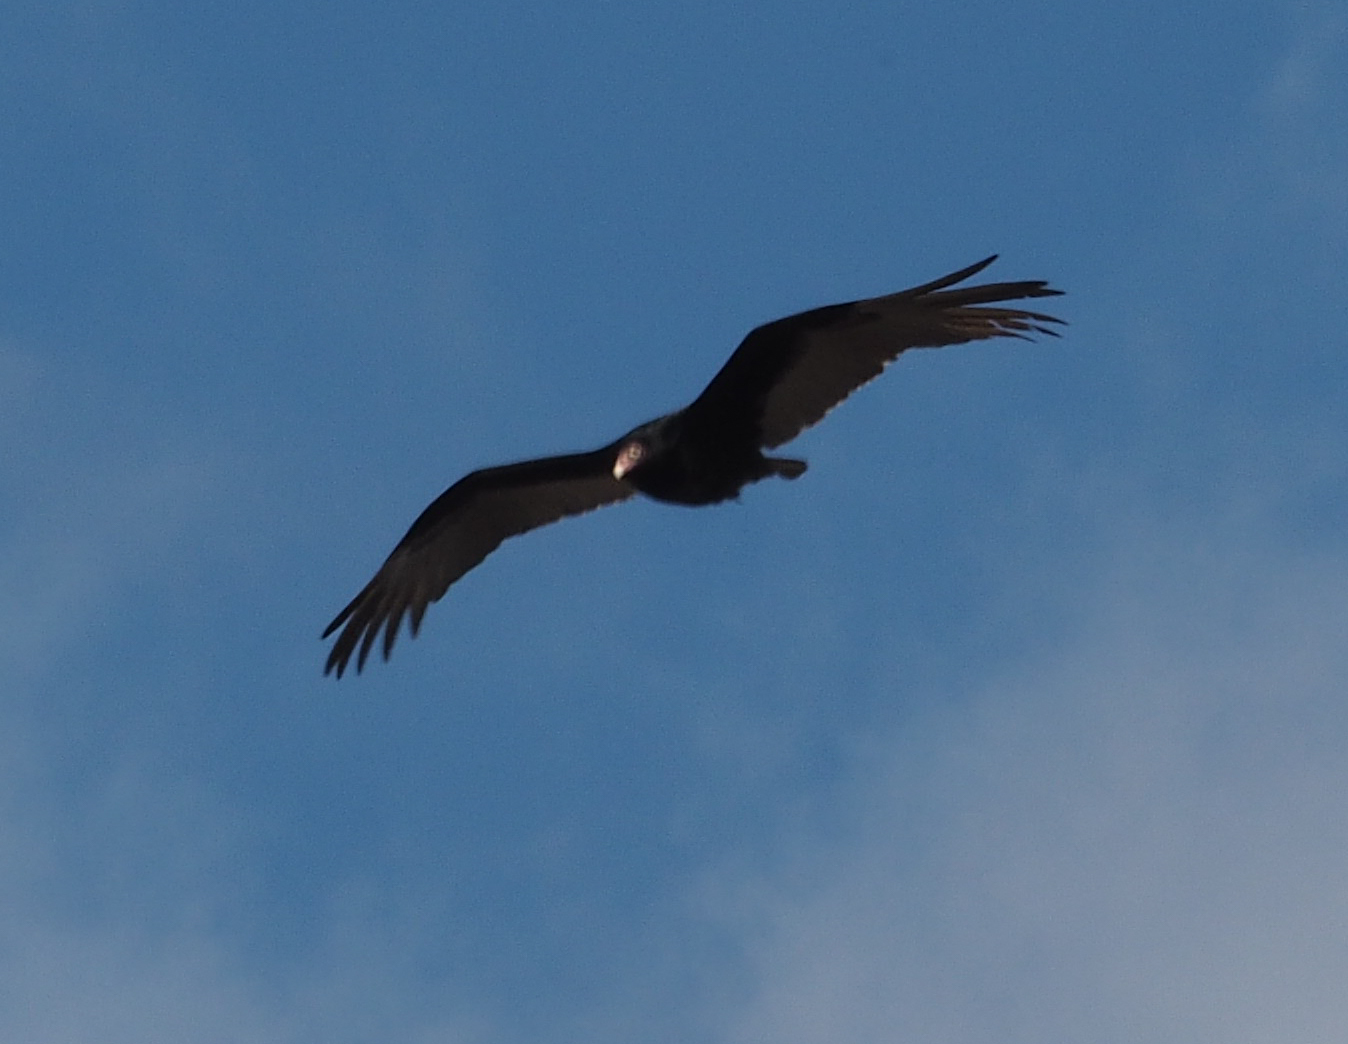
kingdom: Animalia
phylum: Chordata
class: Aves
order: Accipitriformes
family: Cathartidae
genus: Cathartes
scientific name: Cathartes aura
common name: Turkey vulture
